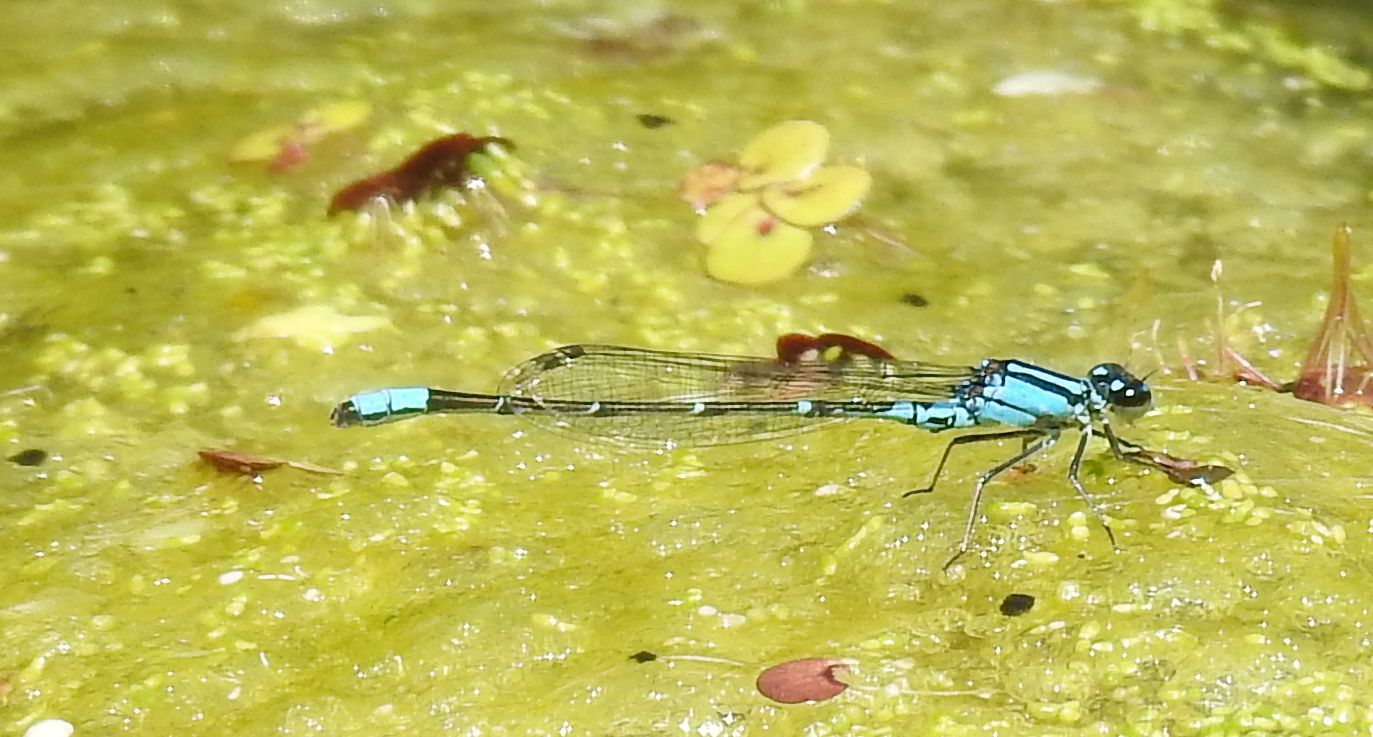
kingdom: Animalia
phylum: Arthropoda
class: Insecta
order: Odonata
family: Coenagrionidae
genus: Enallagma
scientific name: Enallagma geminatum
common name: Skimming bluet
